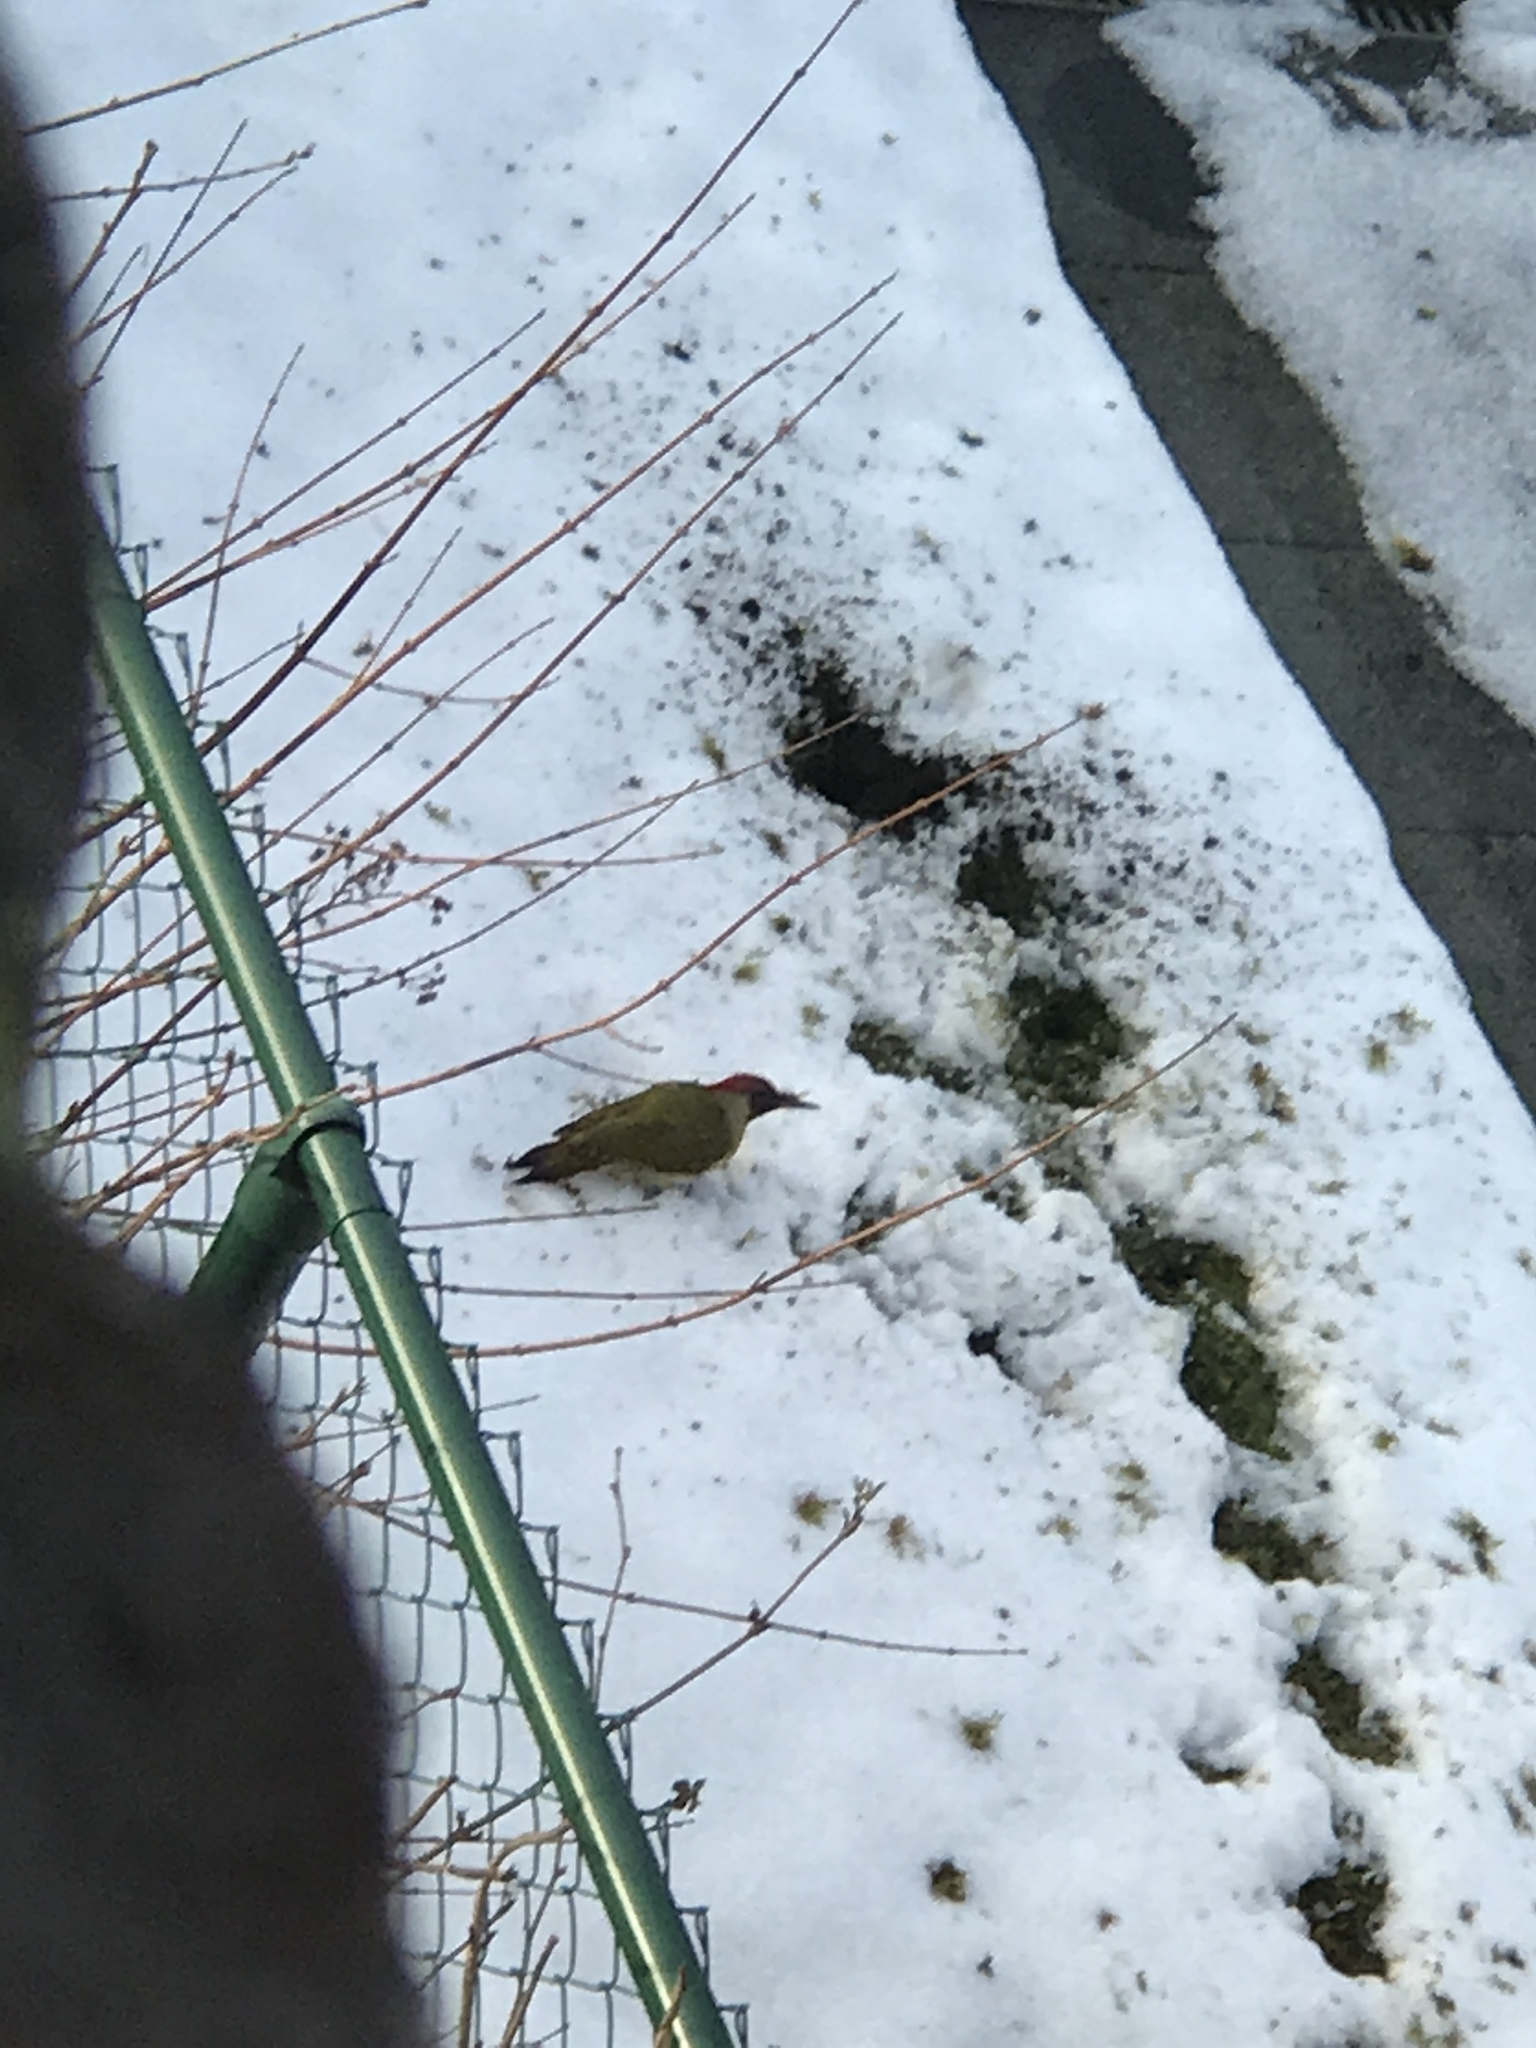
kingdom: Animalia
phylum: Chordata
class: Aves
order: Piciformes
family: Picidae
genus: Picus
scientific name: Picus viridis
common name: European green woodpecker
